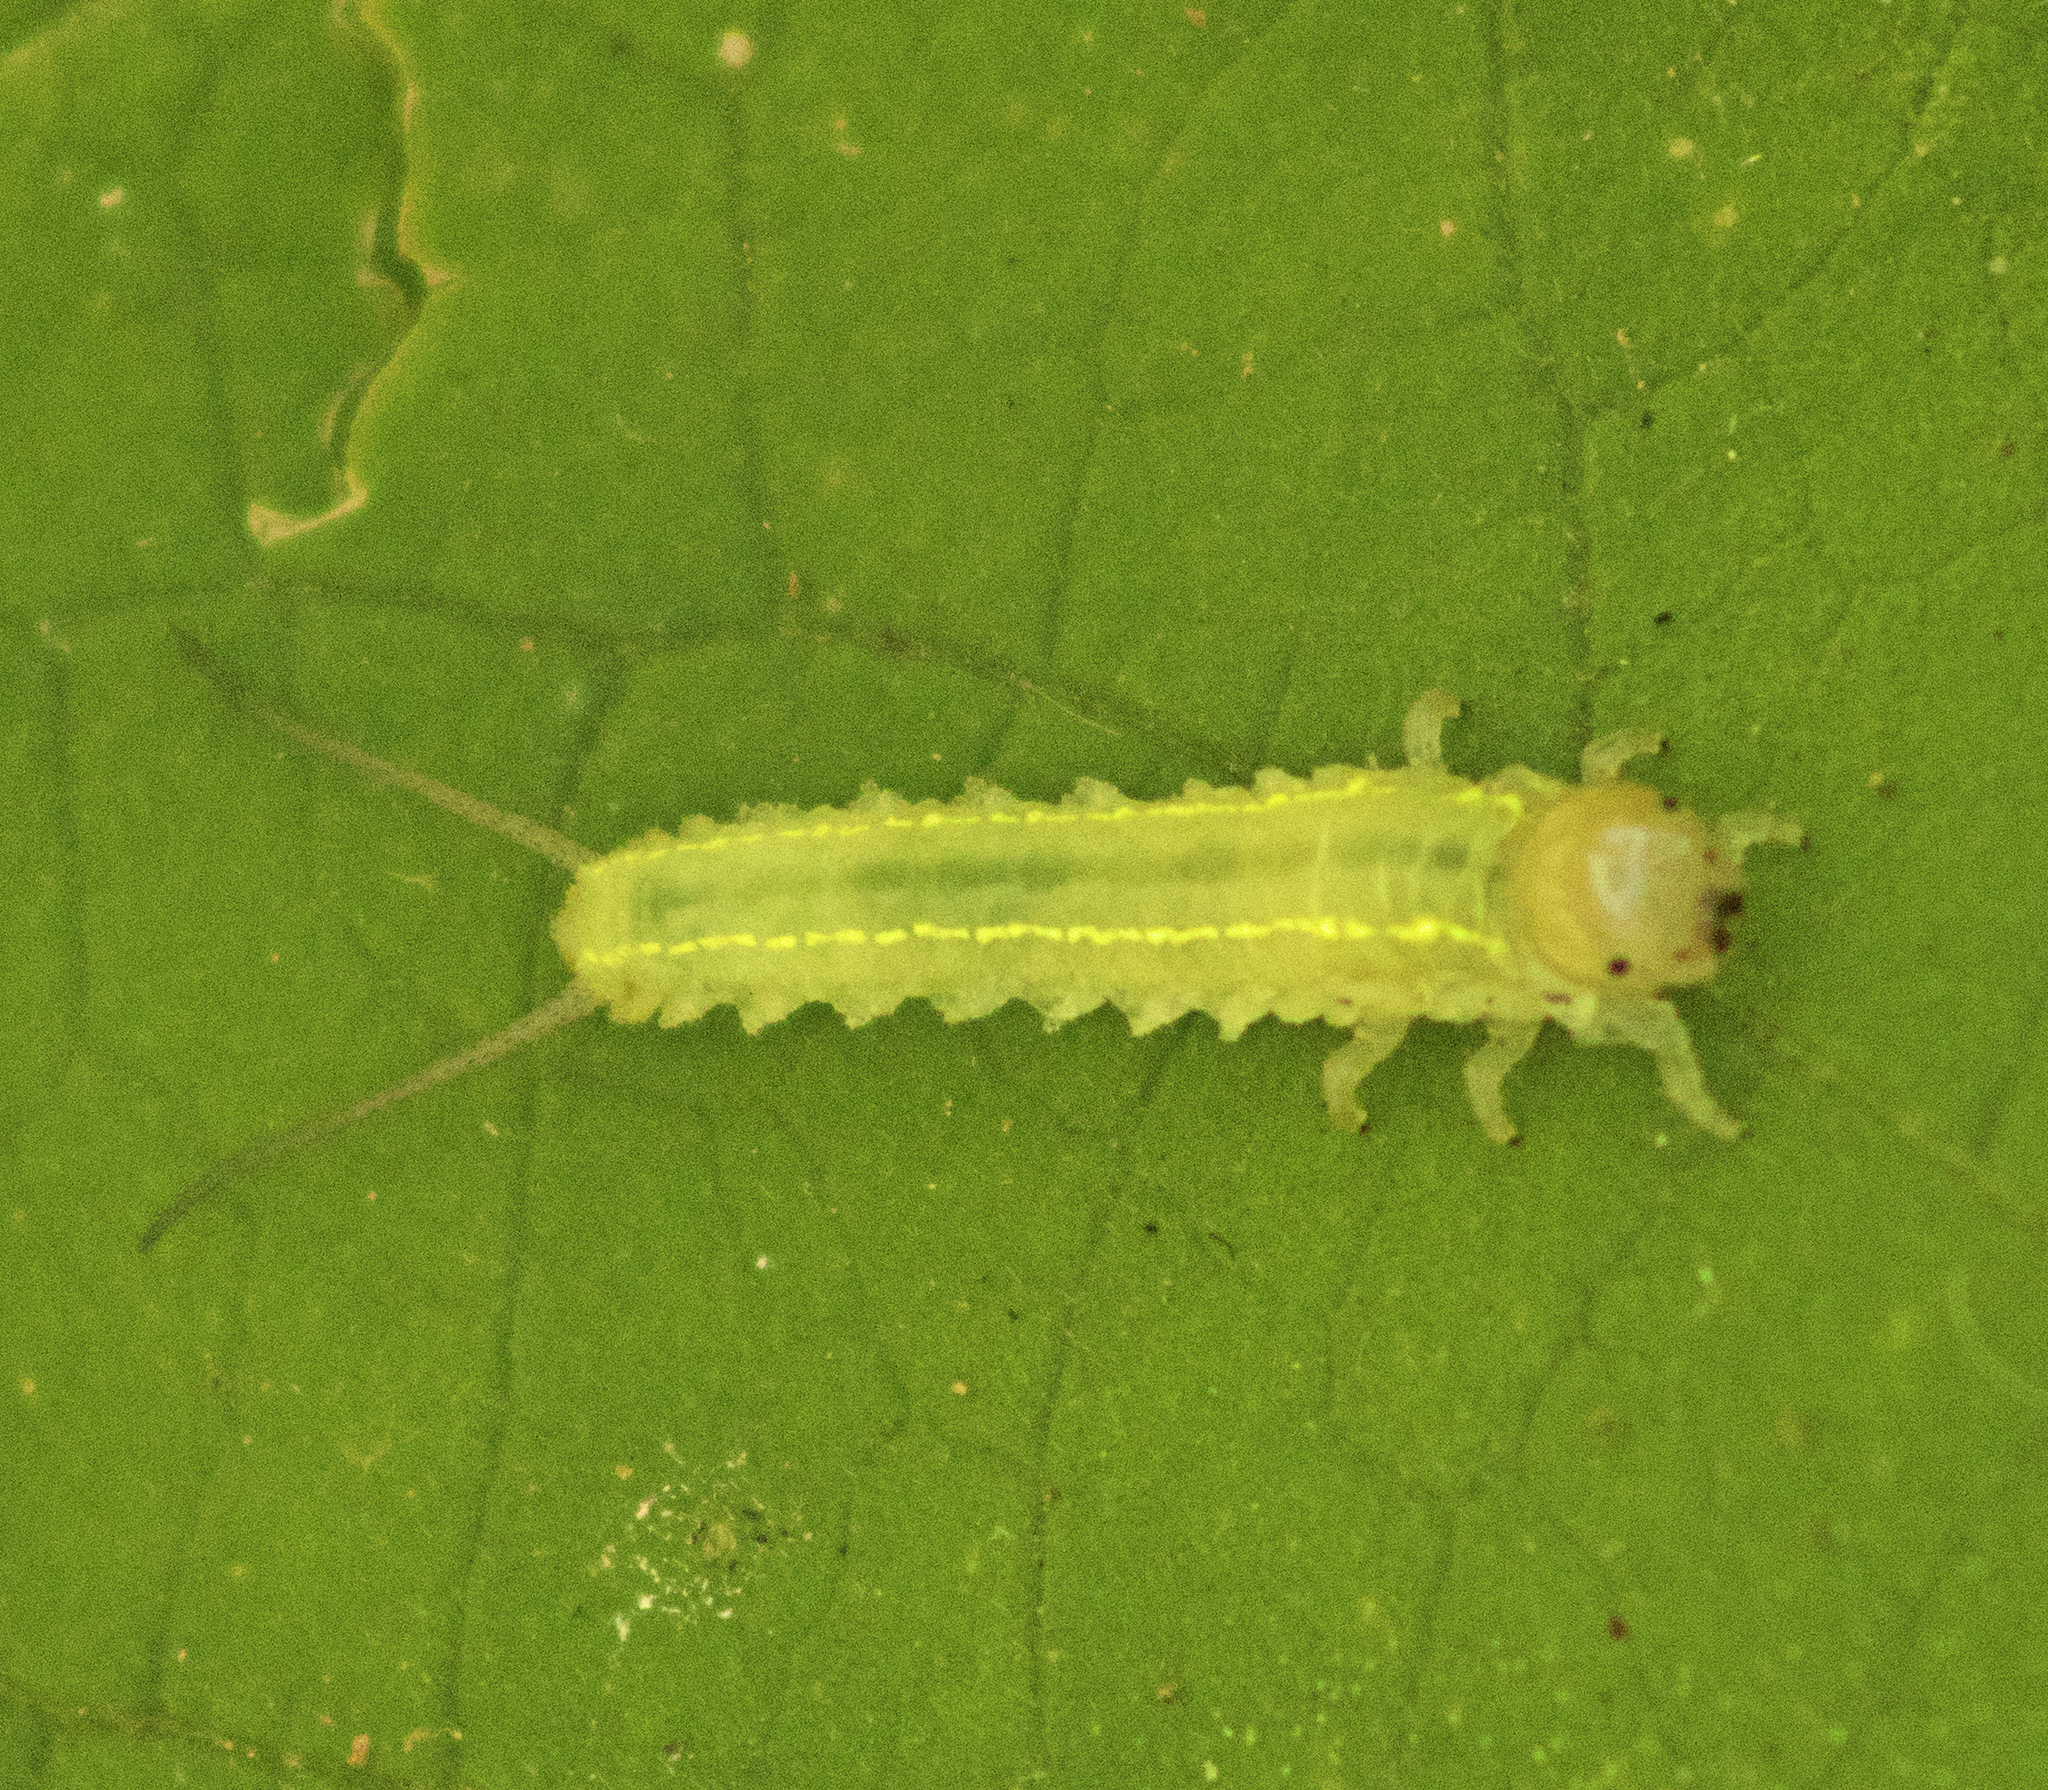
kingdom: Animalia
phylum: Arthropoda
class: Insecta
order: Hymenoptera
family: Pergidae
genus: Philomastix
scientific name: Philomastix
